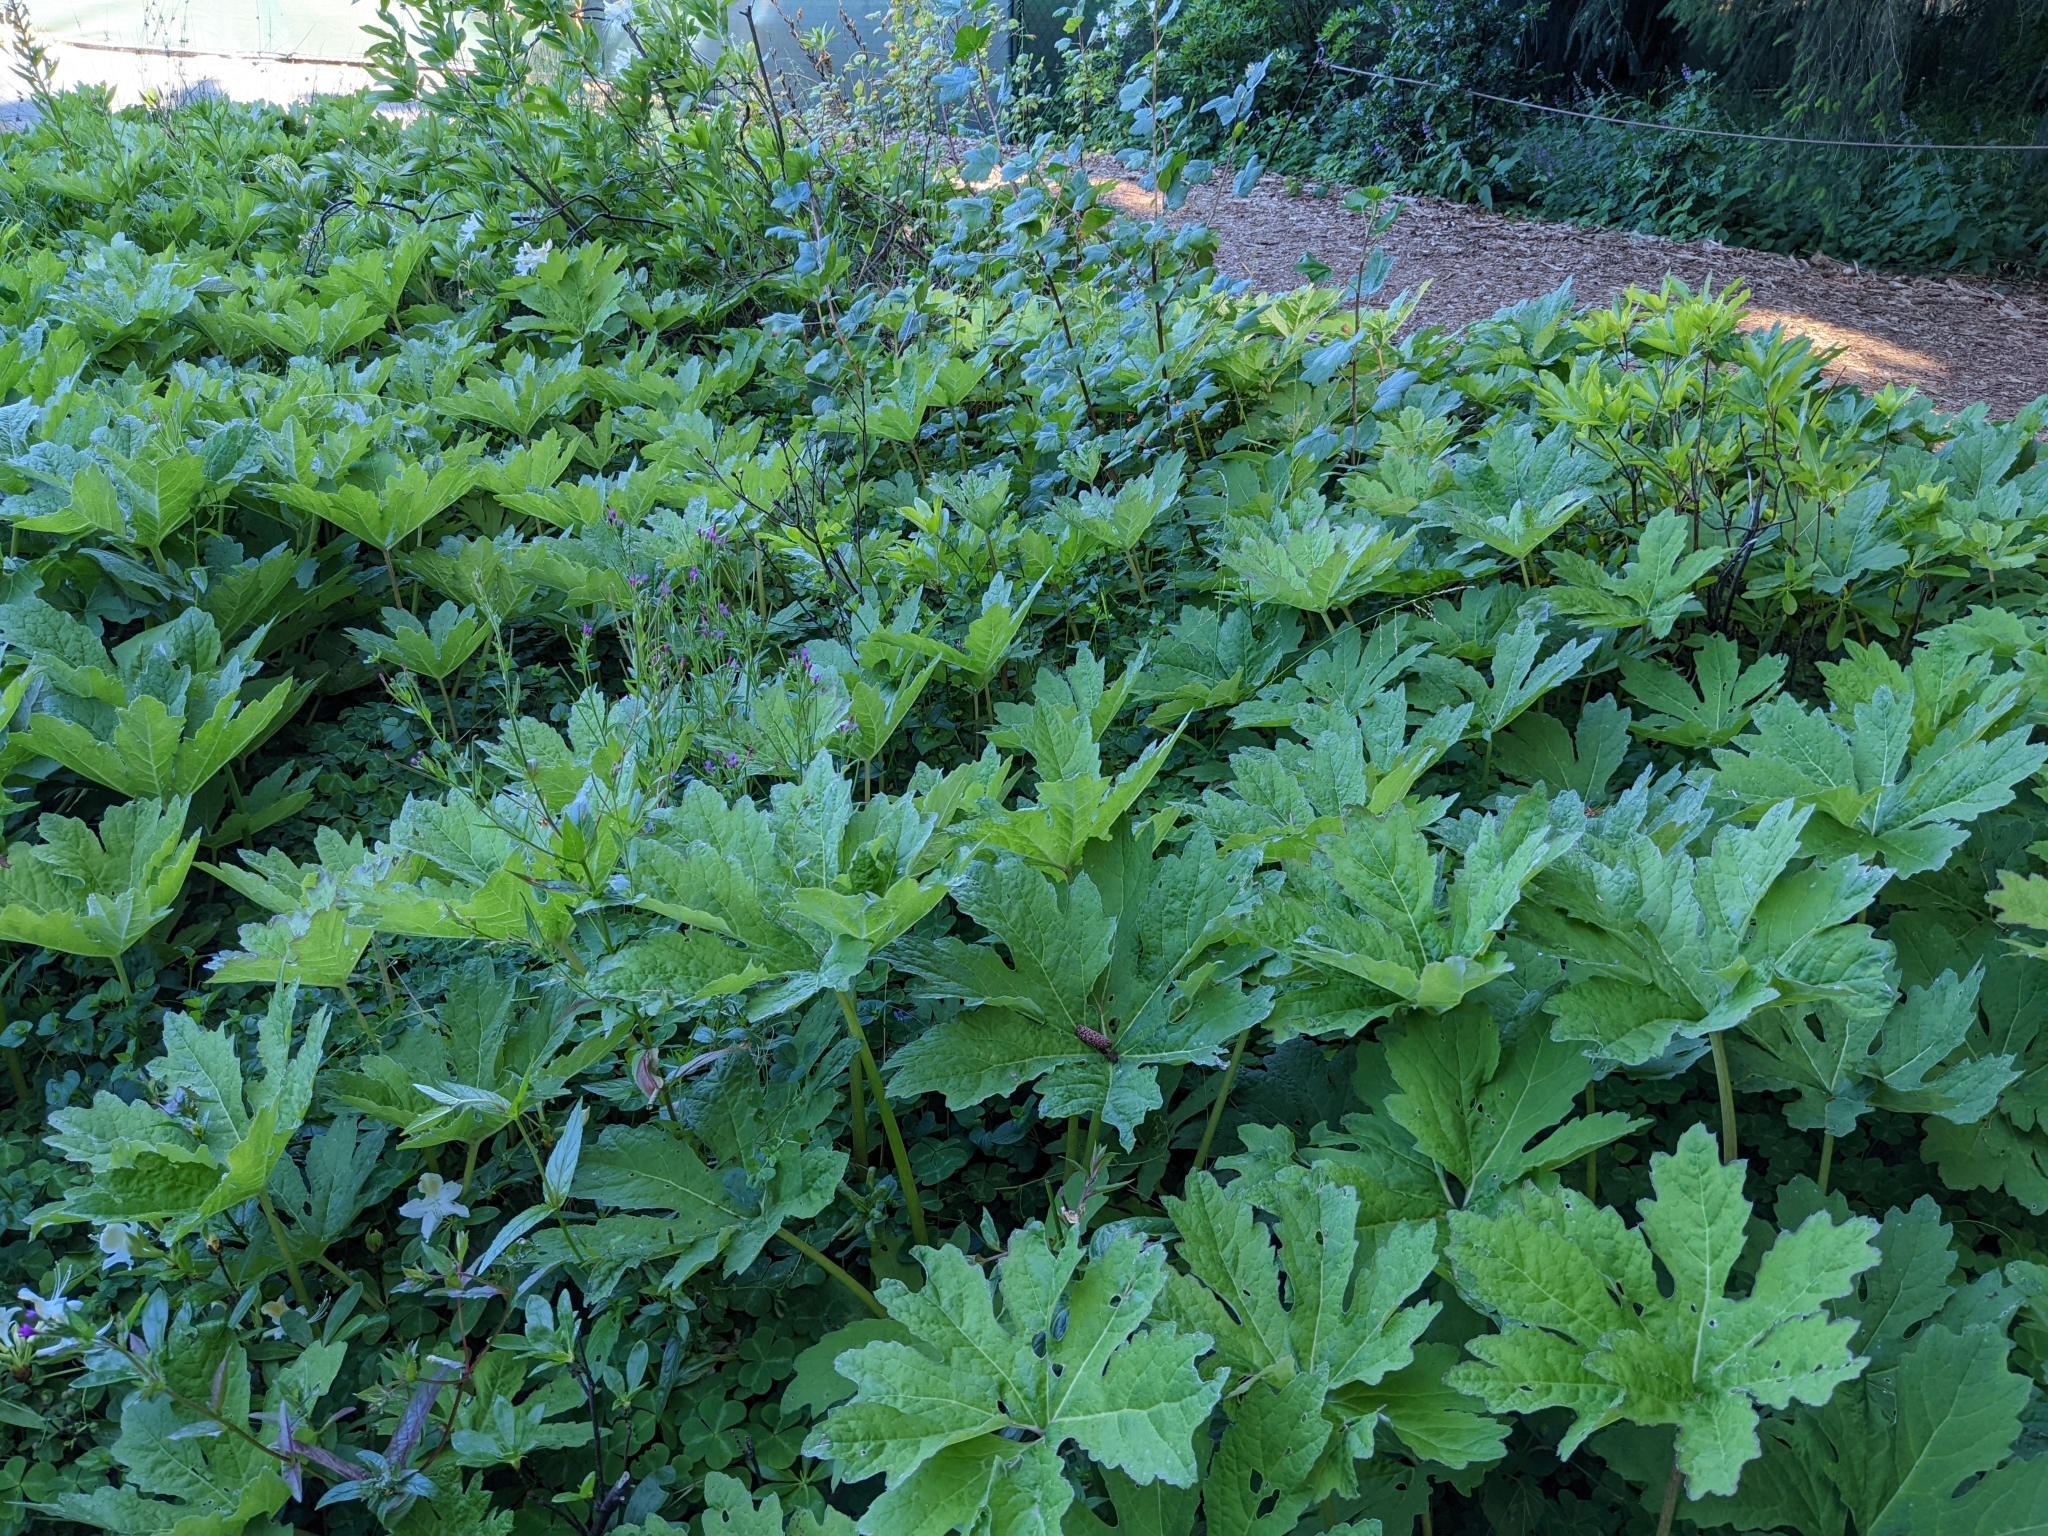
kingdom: Plantae
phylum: Tracheophyta
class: Magnoliopsida
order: Asterales
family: Asteraceae
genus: Petasites
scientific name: Petasites frigidus
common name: Arctic butterbur
